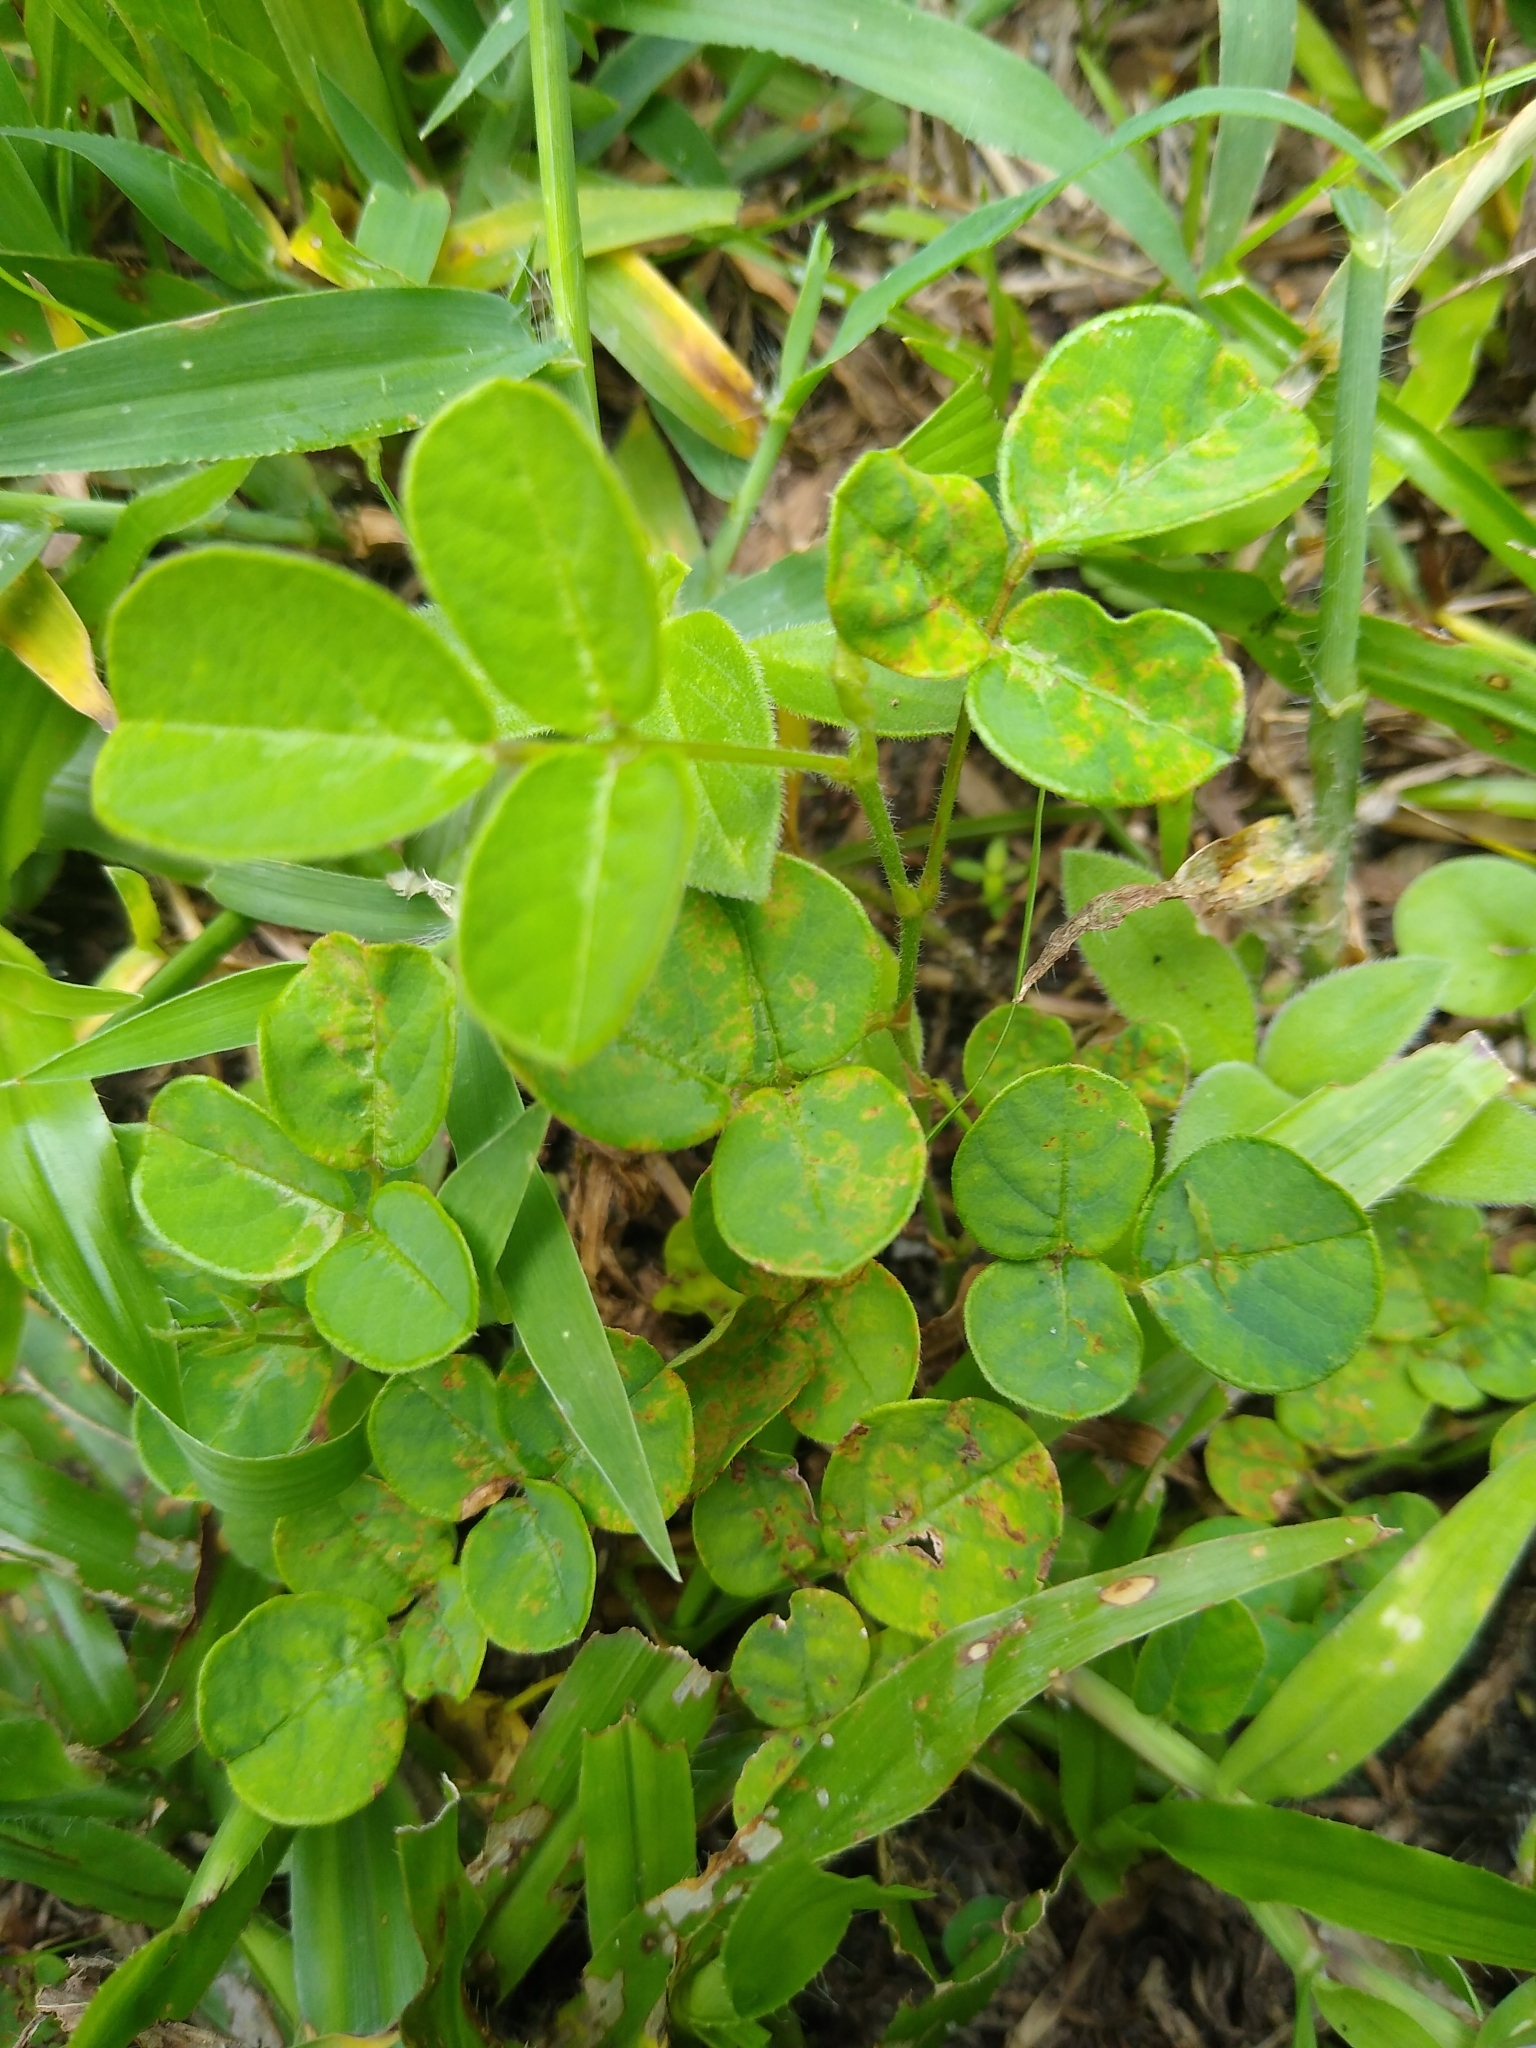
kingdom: Plantae
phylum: Tracheophyta
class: Magnoliopsida
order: Fabales
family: Fabaceae
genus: Grona
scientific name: Grona triflora
